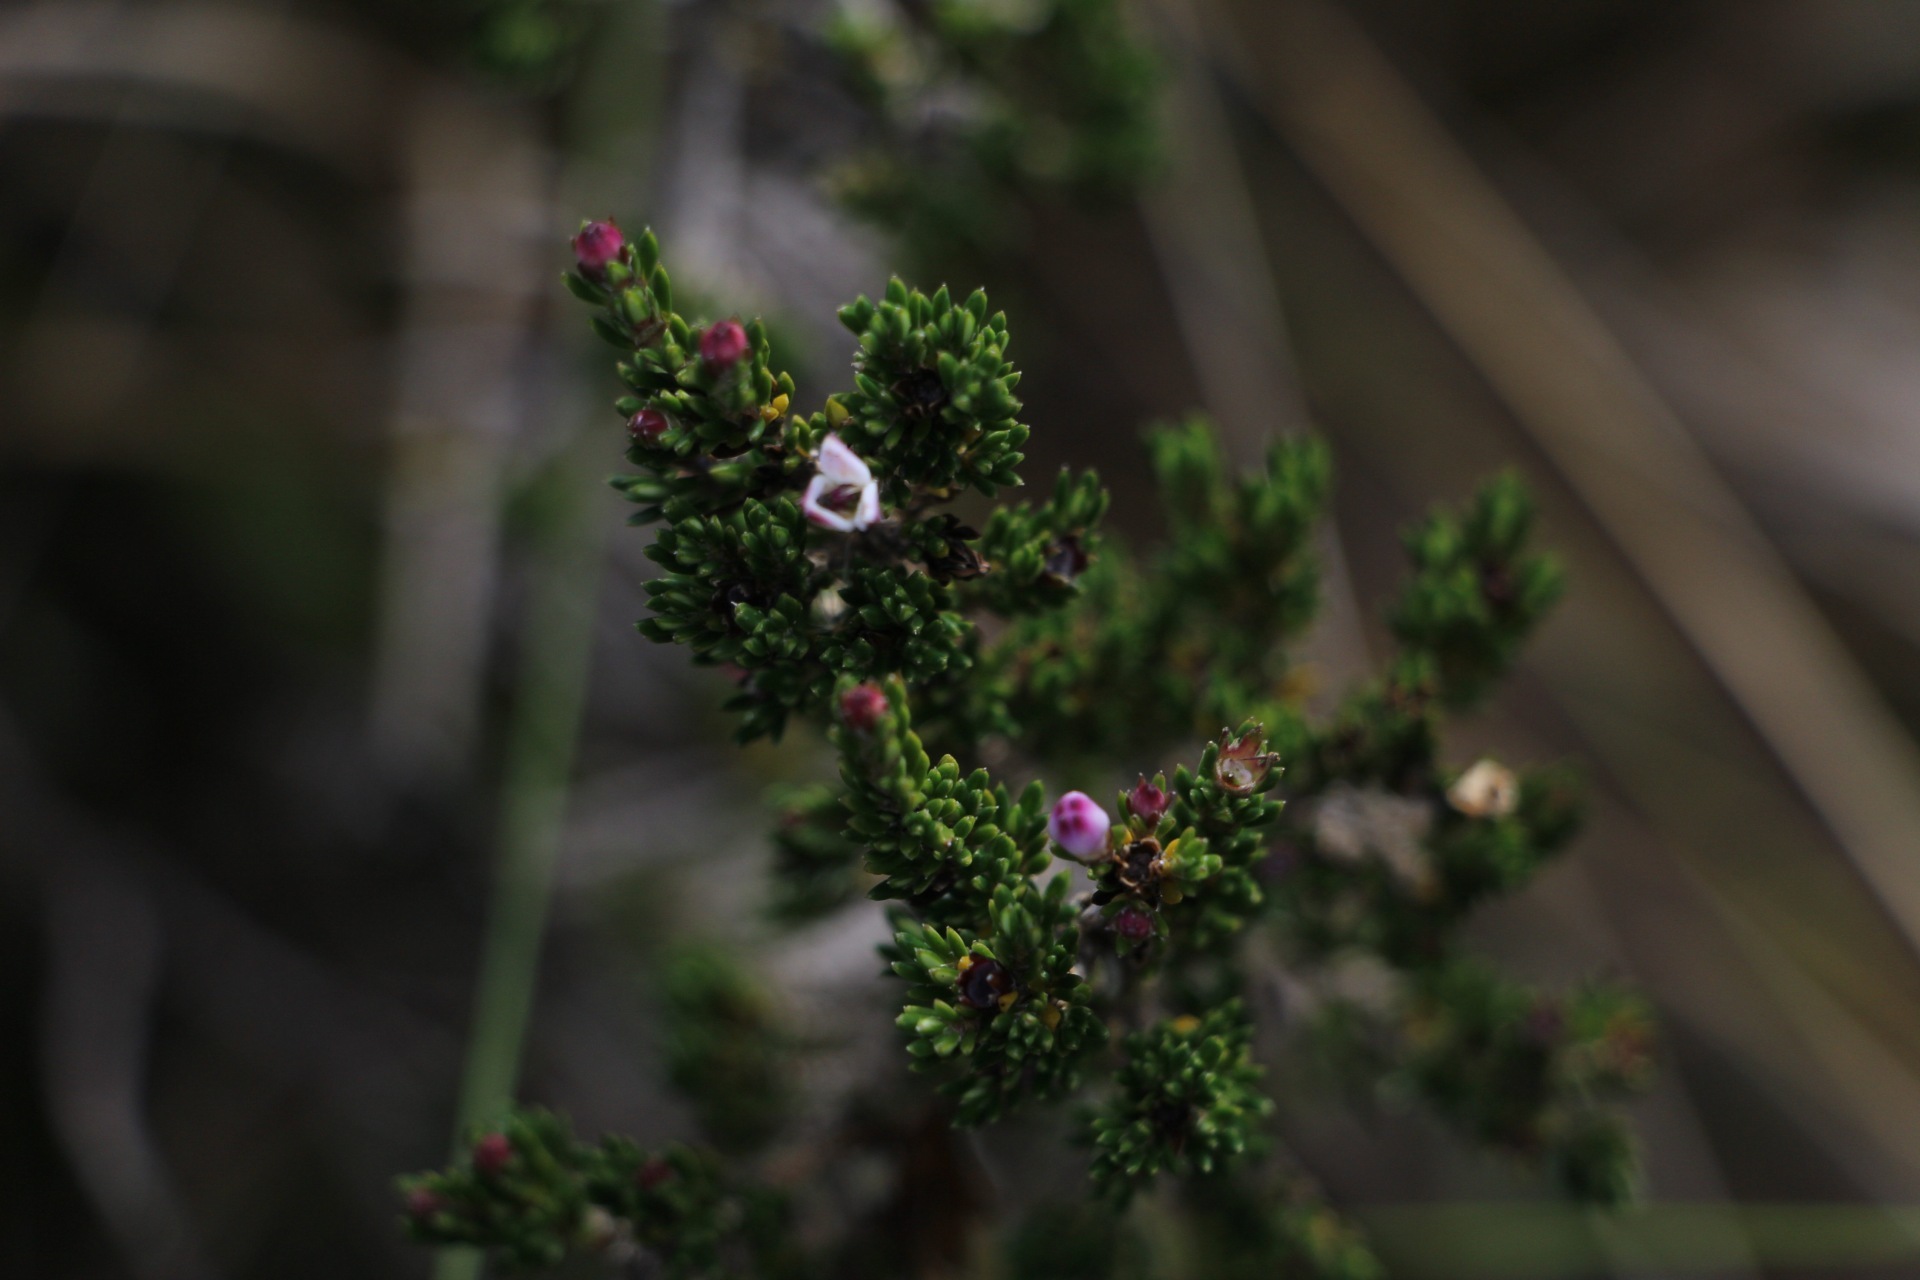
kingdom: Plantae
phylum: Tracheophyta
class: Magnoliopsida
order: Gentianales
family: Rubiaceae
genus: Arcytophyllum
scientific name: Arcytophyllum nitidum
